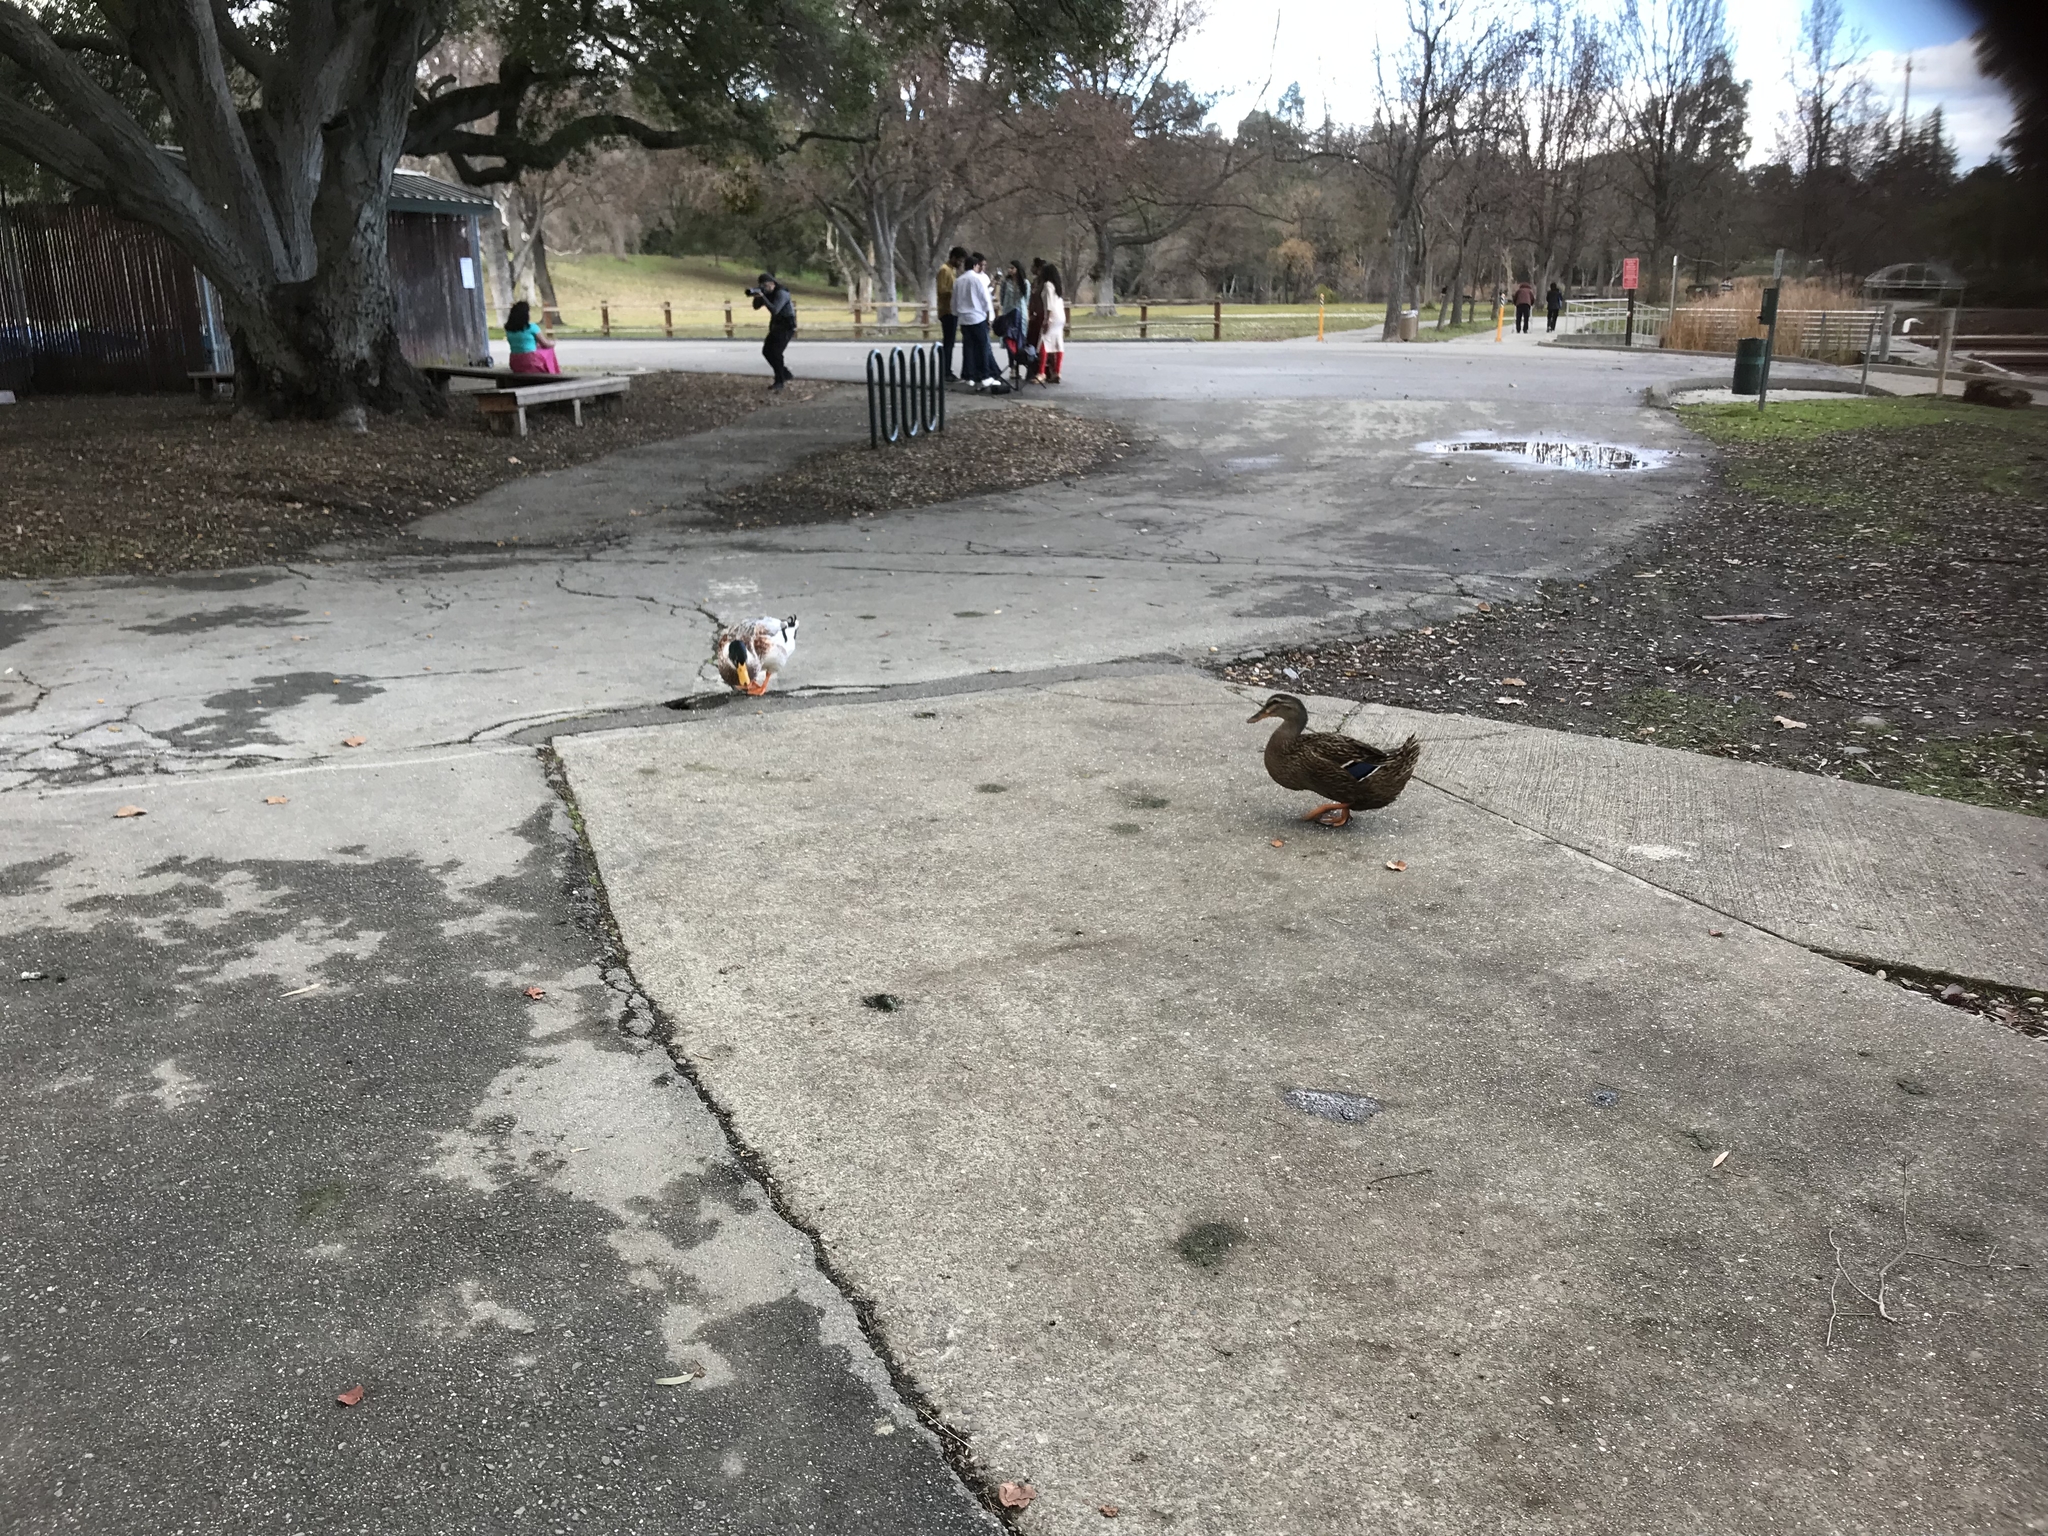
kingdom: Animalia
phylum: Chordata
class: Aves
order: Anseriformes
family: Anatidae
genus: Anas
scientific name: Anas platyrhynchos
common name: Mallard
